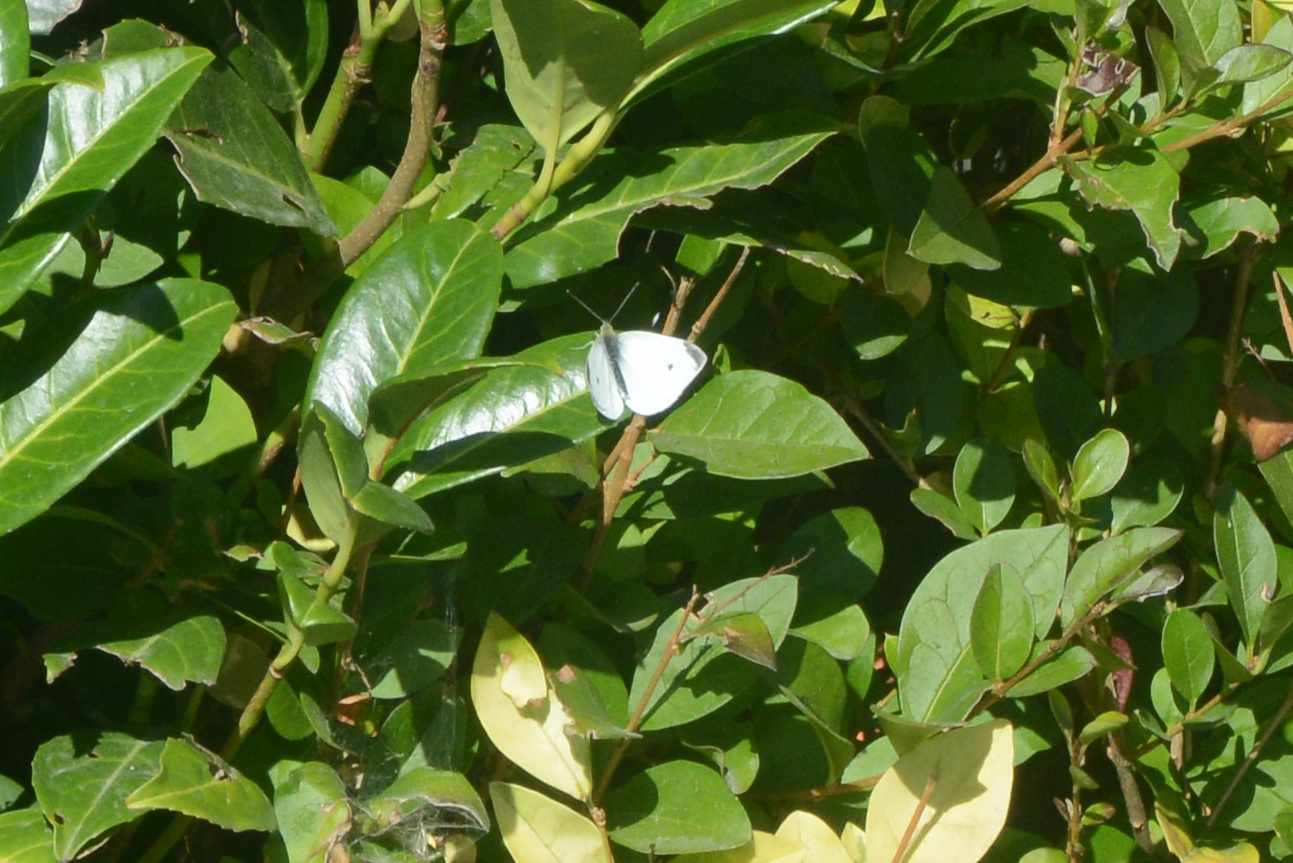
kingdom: Animalia
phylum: Arthropoda
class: Insecta
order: Lepidoptera
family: Pieridae
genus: Pieris
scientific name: Pieris rapae
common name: Small white
